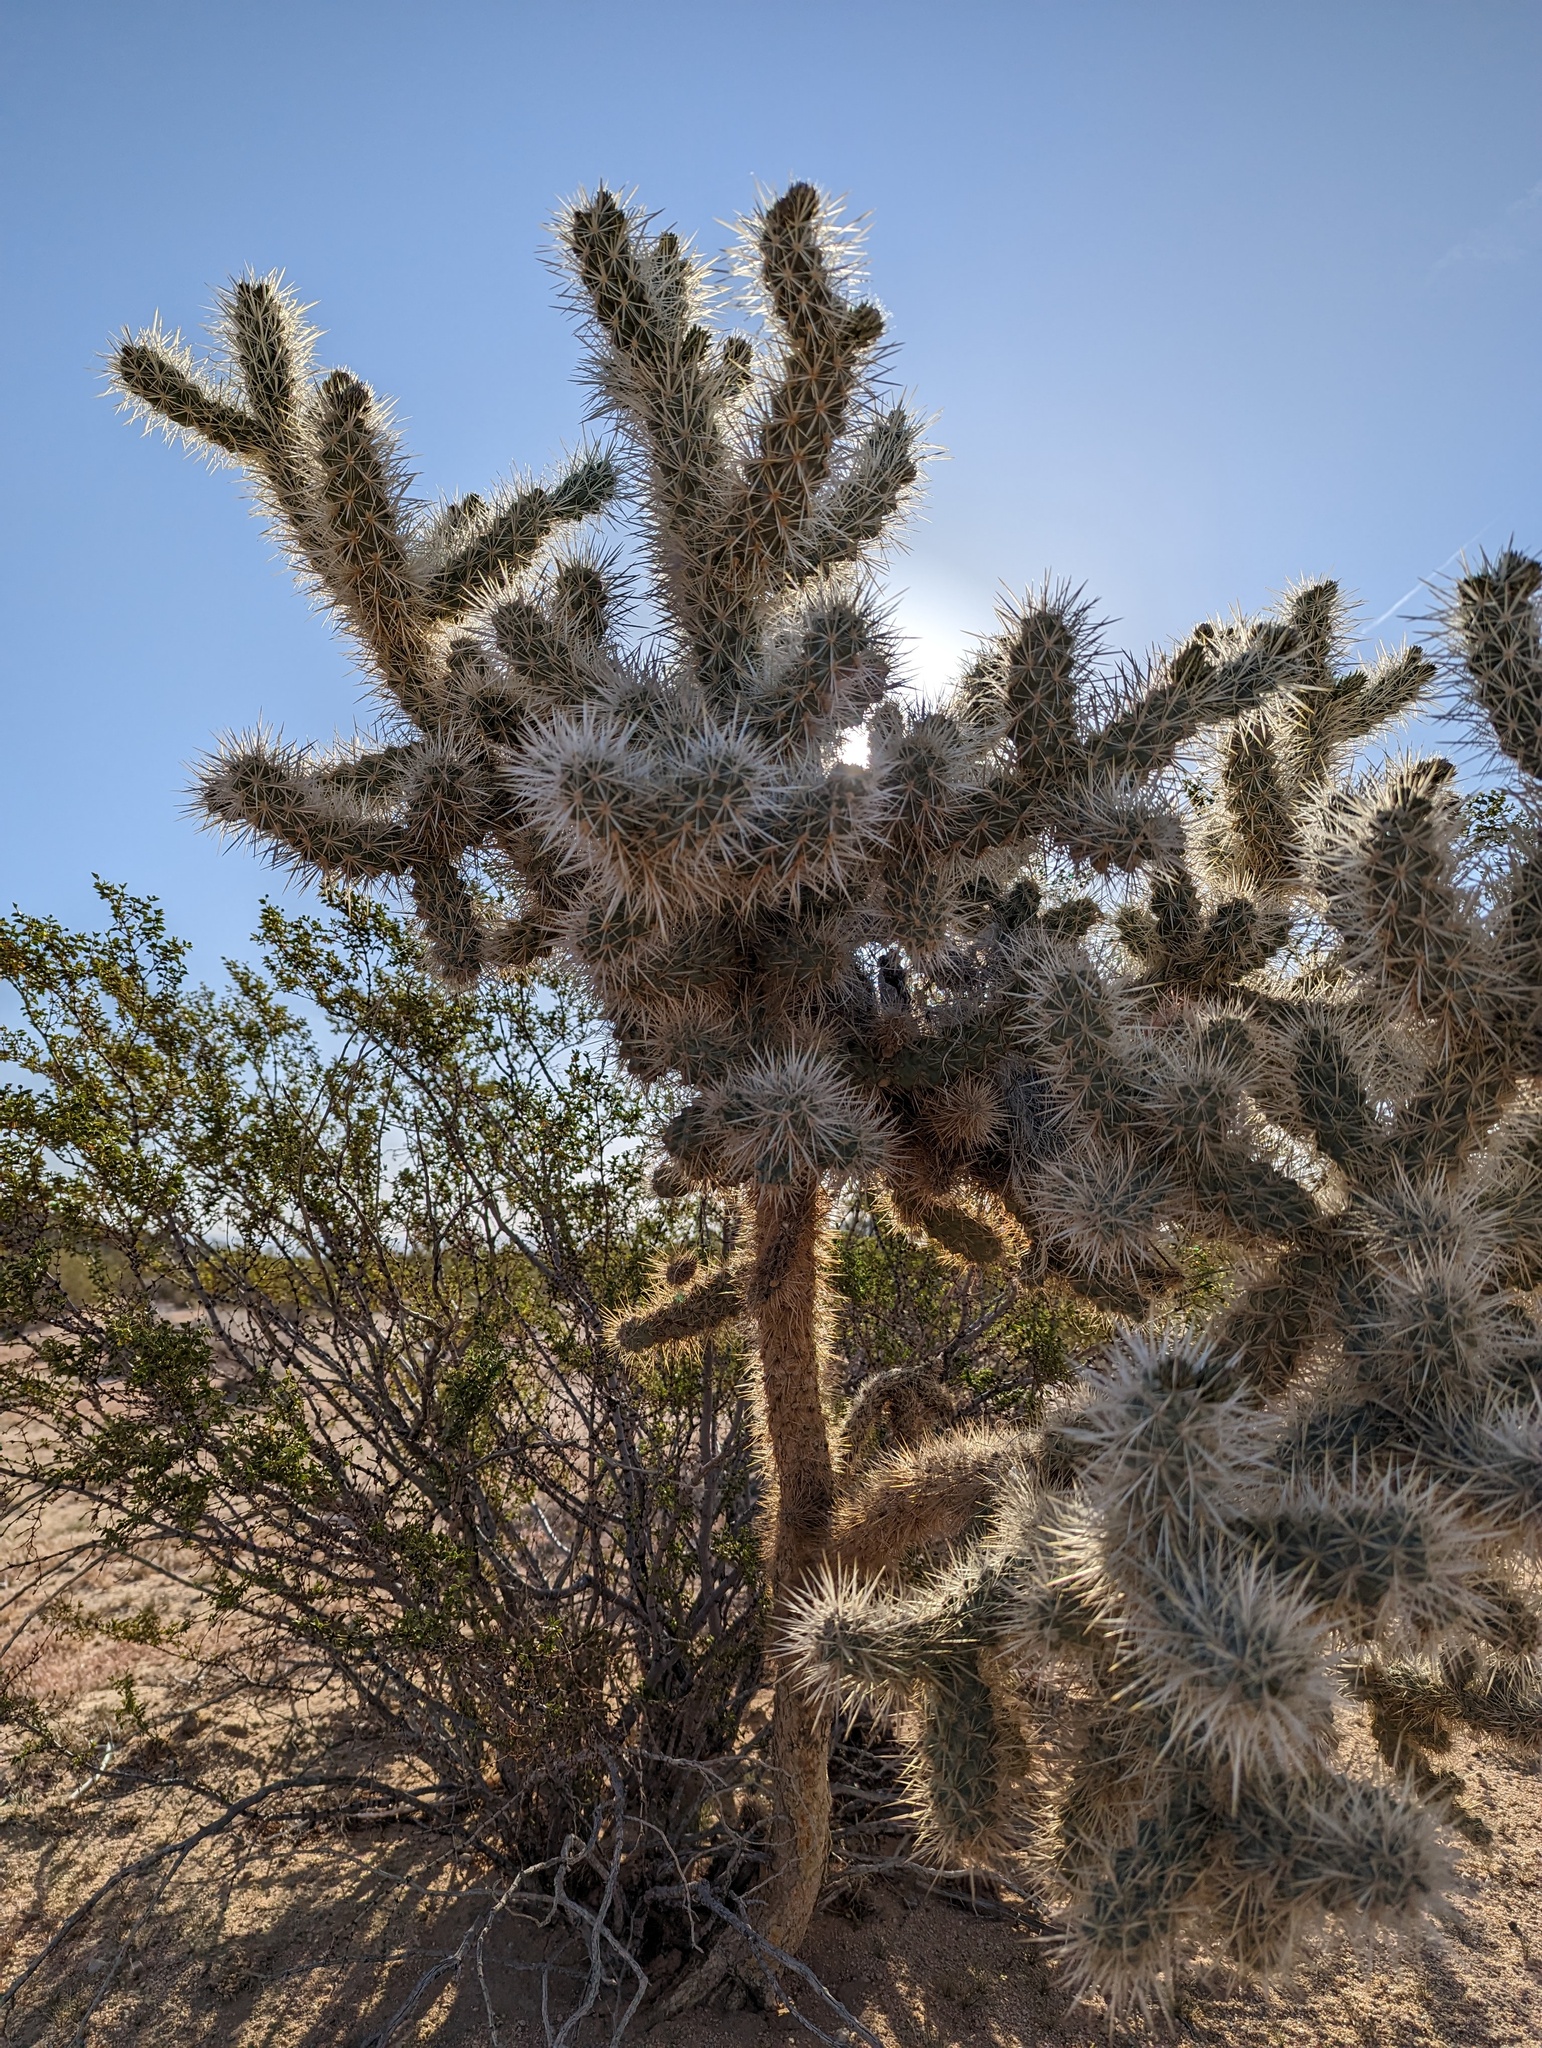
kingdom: Plantae
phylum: Tracheophyta
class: Magnoliopsida
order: Caryophyllales
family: Cactaceae
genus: Cylindropuntia
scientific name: Cylindropuntia echinocarpa
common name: Ground cholla
